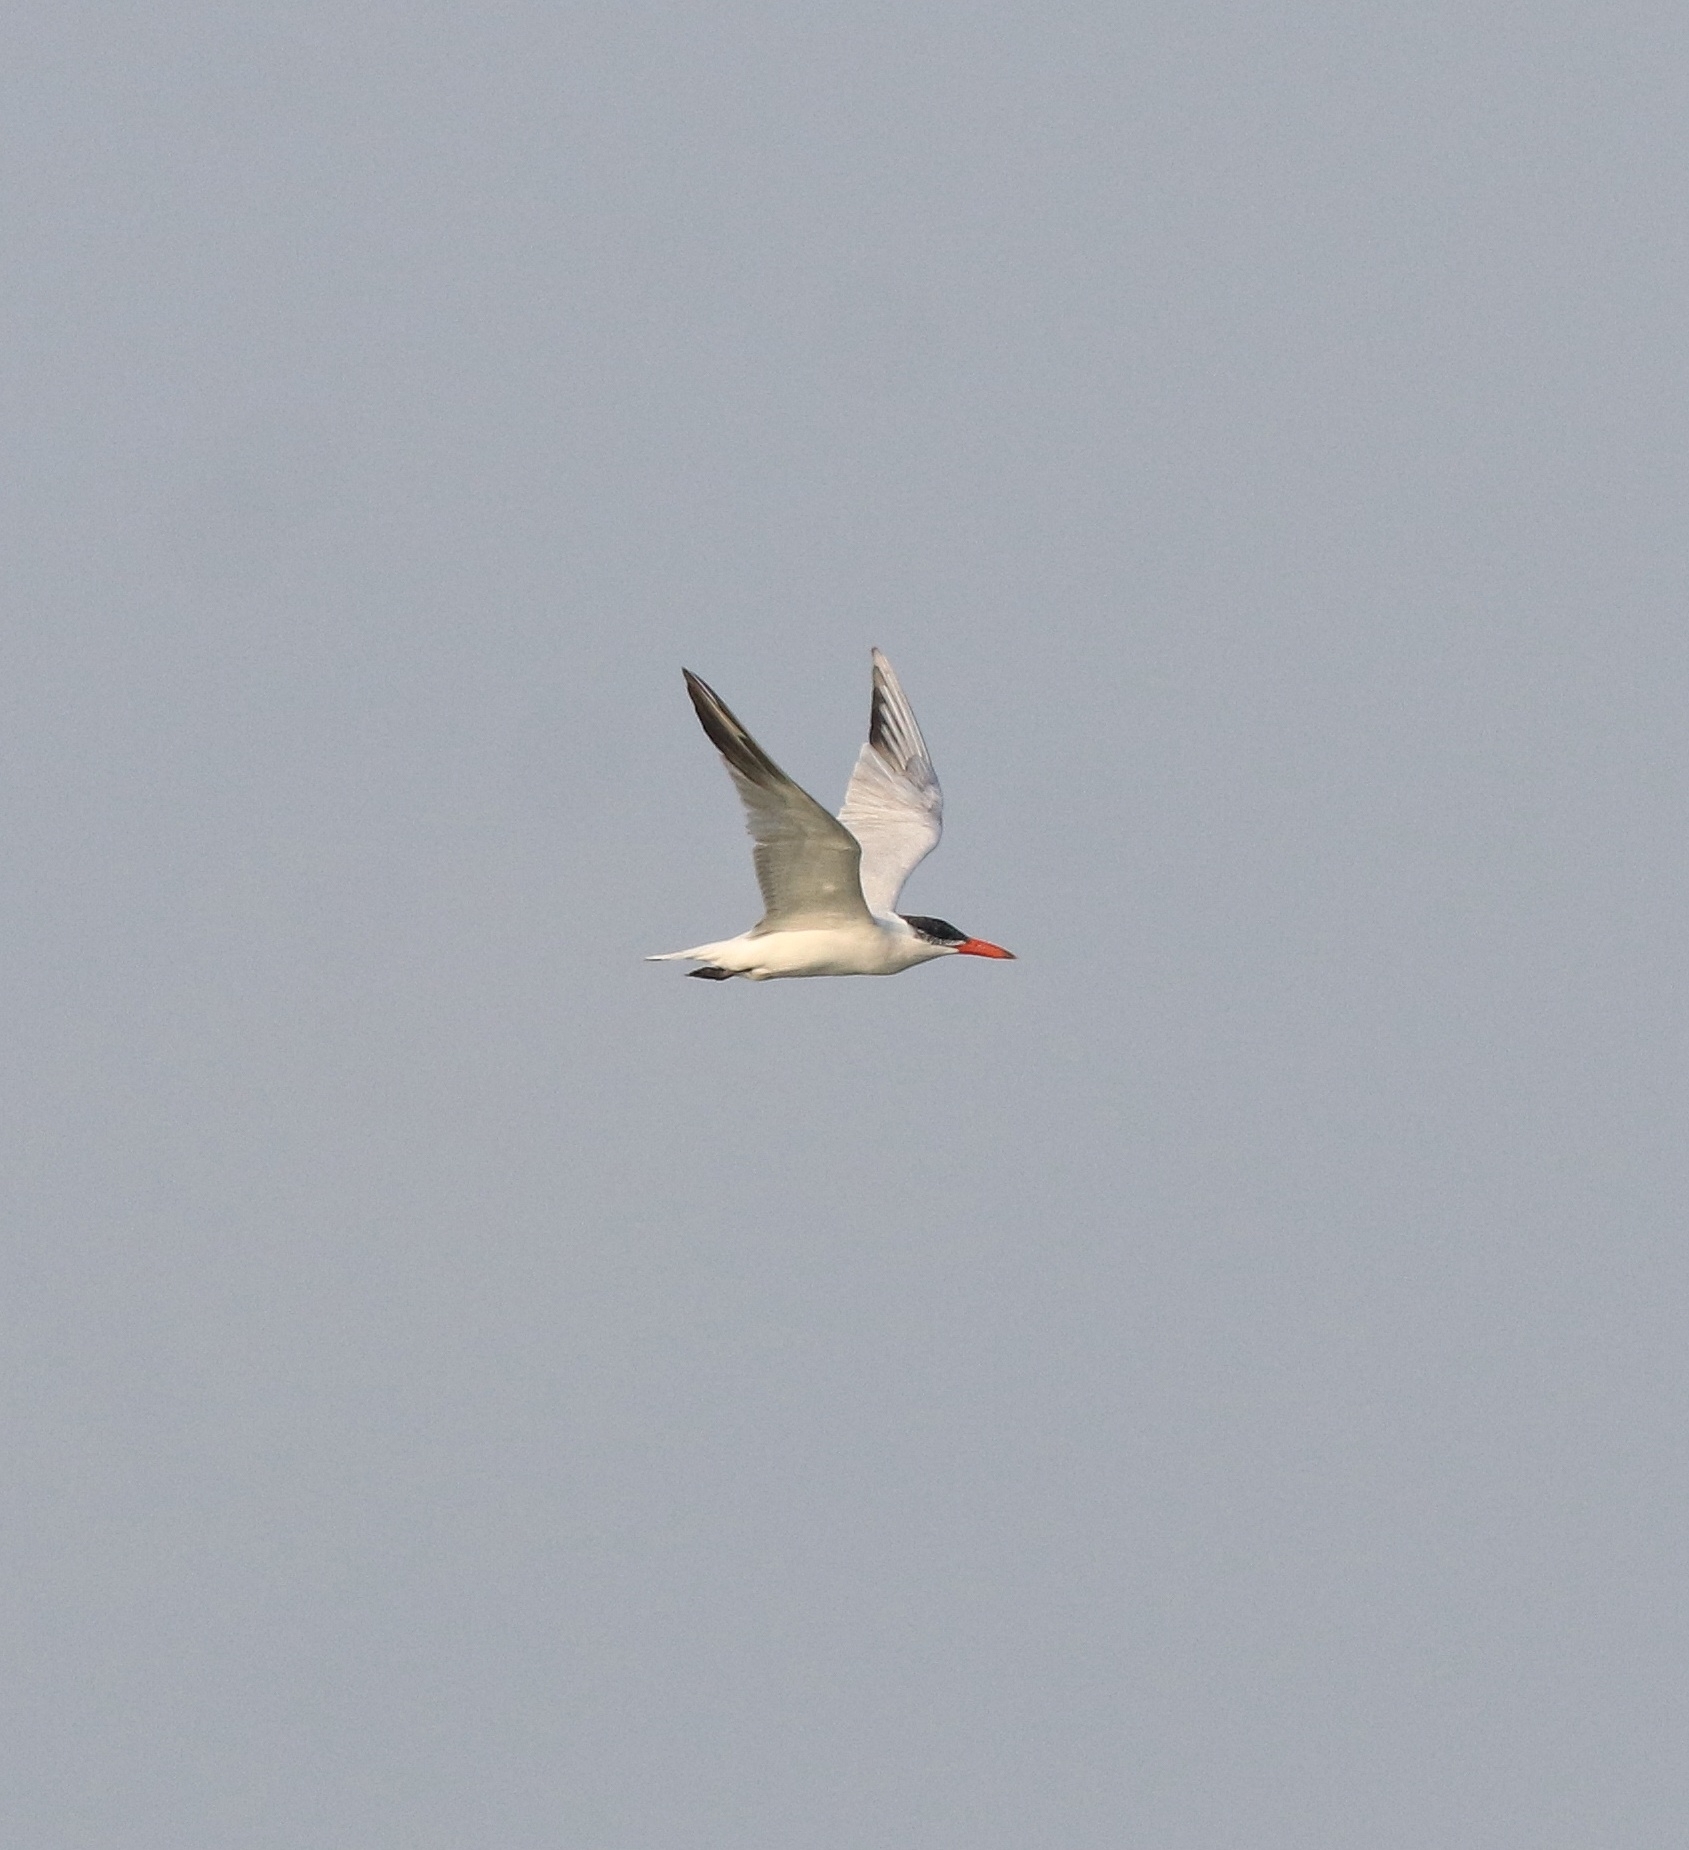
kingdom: Animalia
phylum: Chordata
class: Aves
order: Charadriiformes
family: Laridae
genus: Hydroprogne
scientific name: Hydroprogne caspia
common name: Caspian tern
